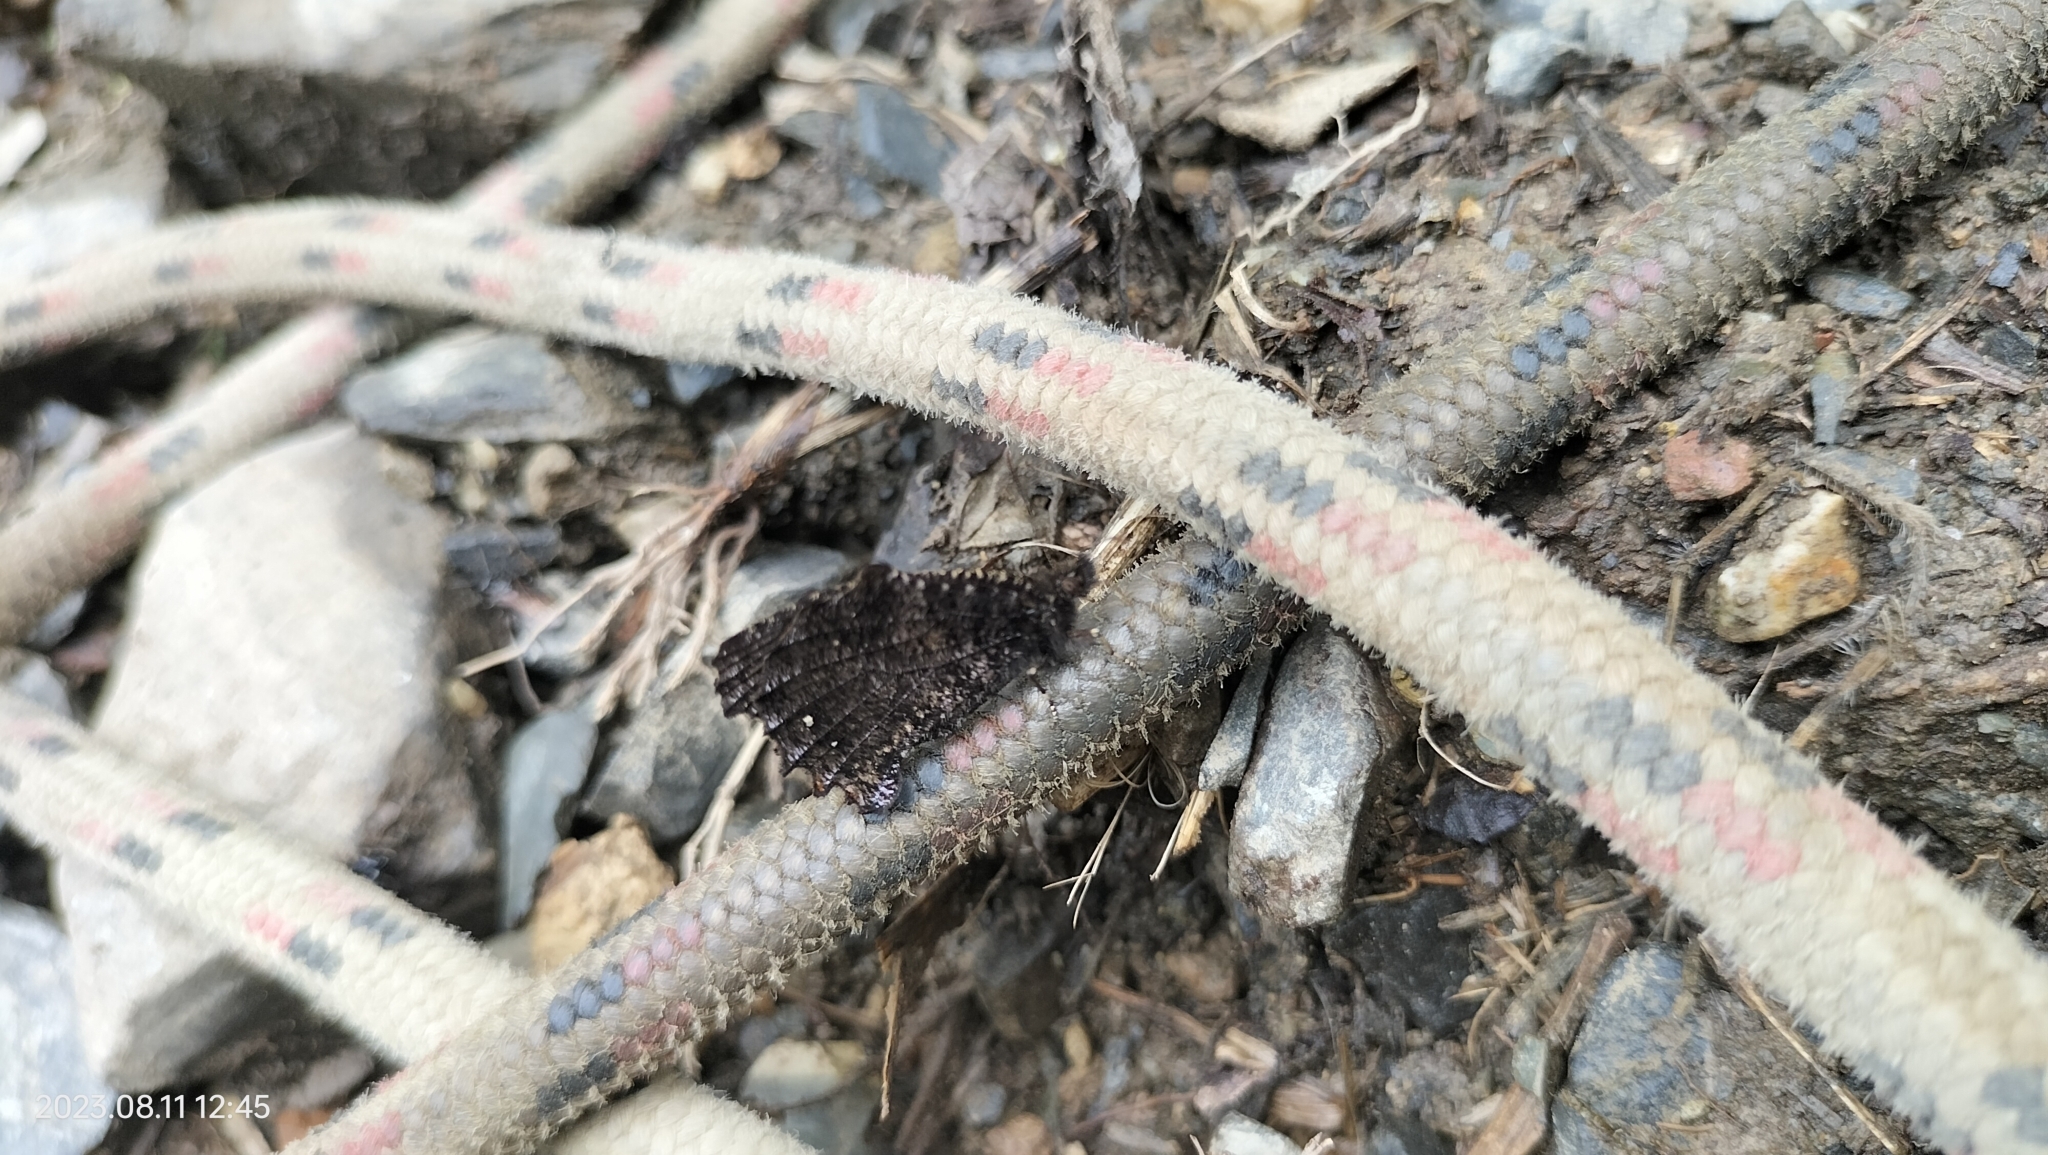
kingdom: Animalia
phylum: Arthropoda
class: Insecta
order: Lepidoptera
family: Nymphalidae
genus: Steroma
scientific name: Steroma modesta
